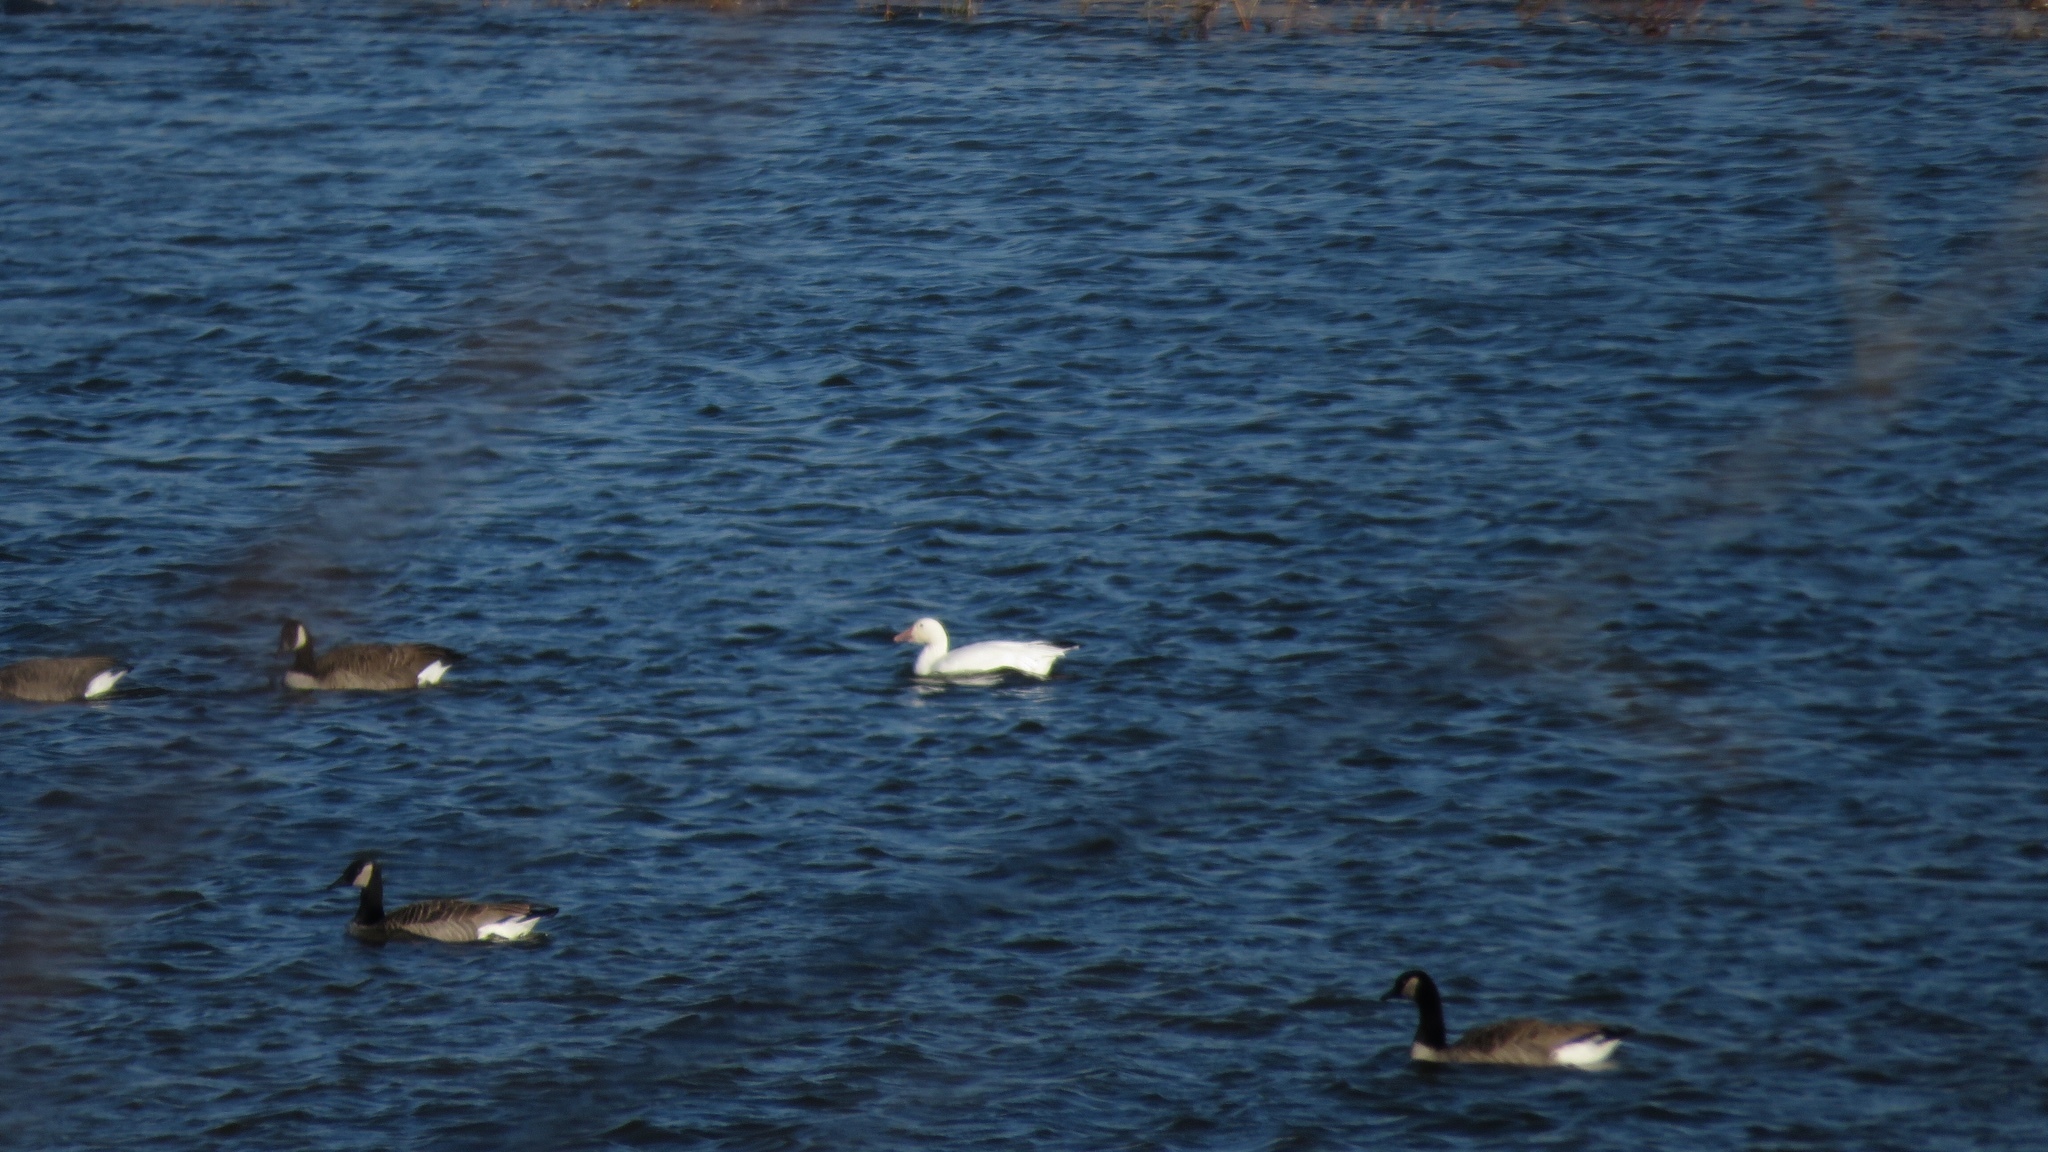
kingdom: Animalia
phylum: Chordata
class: Aves
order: Anseriformes
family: Anatidae
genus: Anser
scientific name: Anser caerulescens
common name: Snow goose
